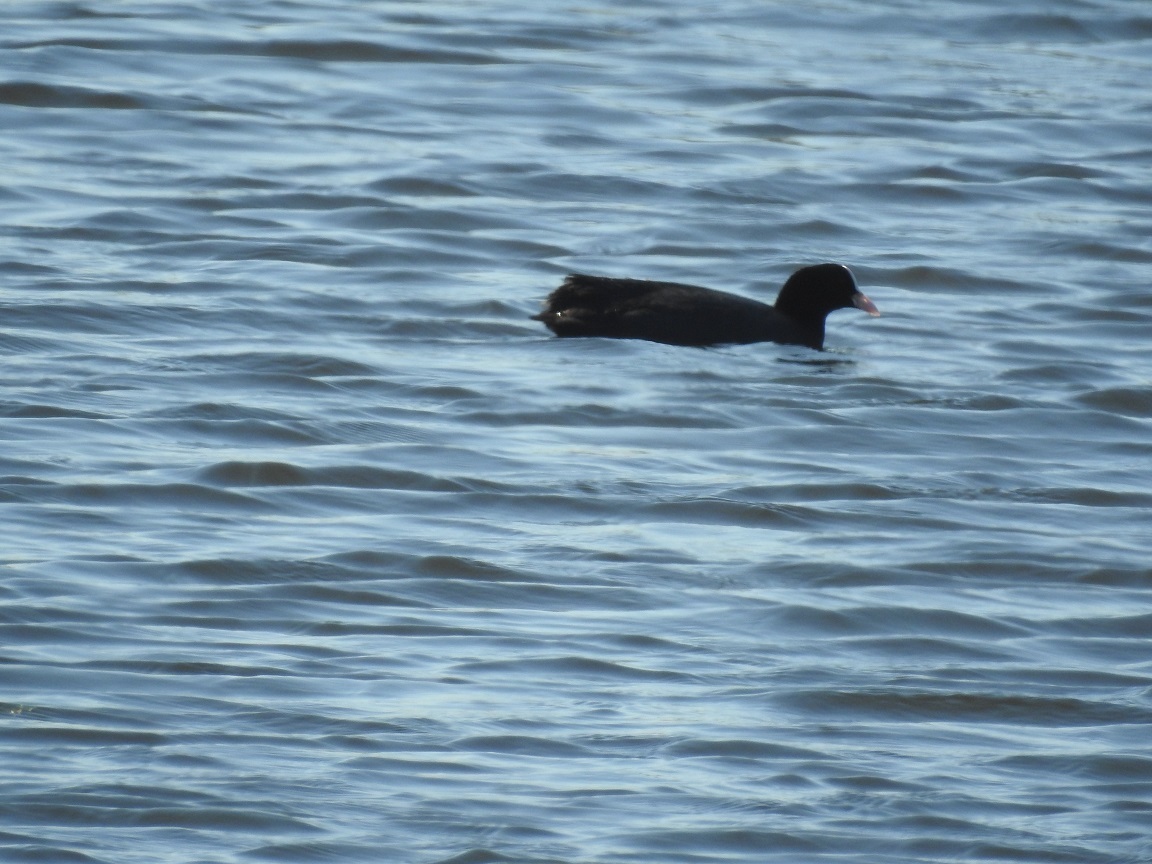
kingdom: Animalia
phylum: Chordata
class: Aves
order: Gruiformes
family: Rallidae
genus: Fulica
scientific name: Fulica atra
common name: Eurasian coot
